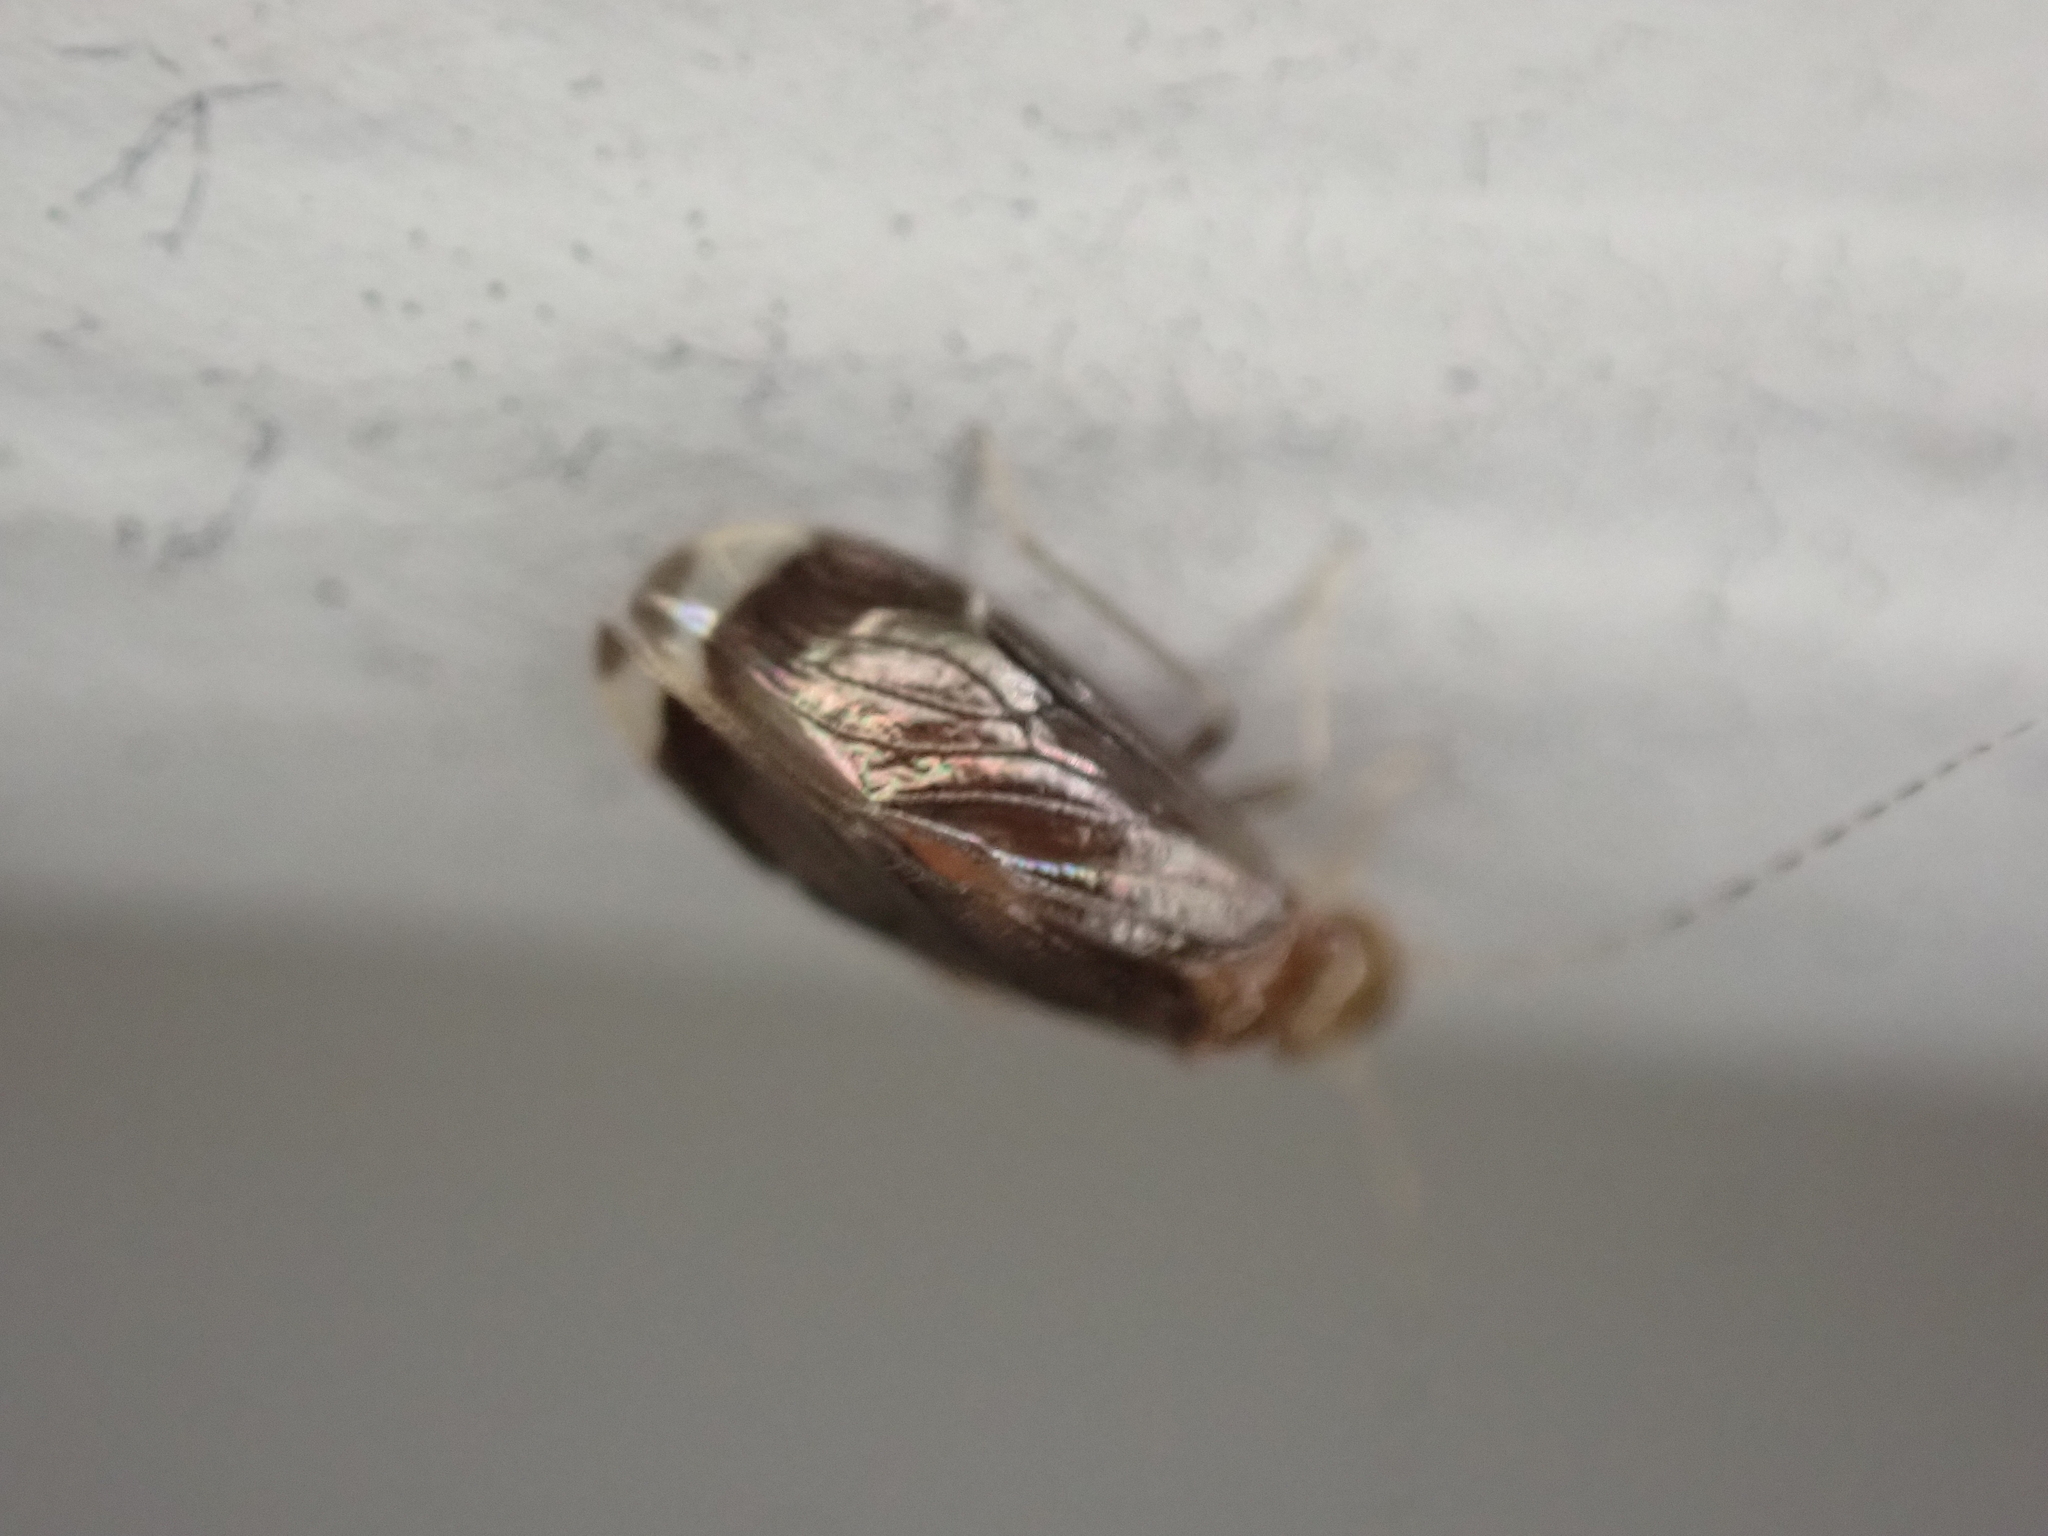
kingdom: Animalia
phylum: Arthropoda
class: Insecta
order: Psocodea
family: Amphipsocidae
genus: Polypsocus
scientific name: Polypsocus corruptus
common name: Corrupt barklouse
